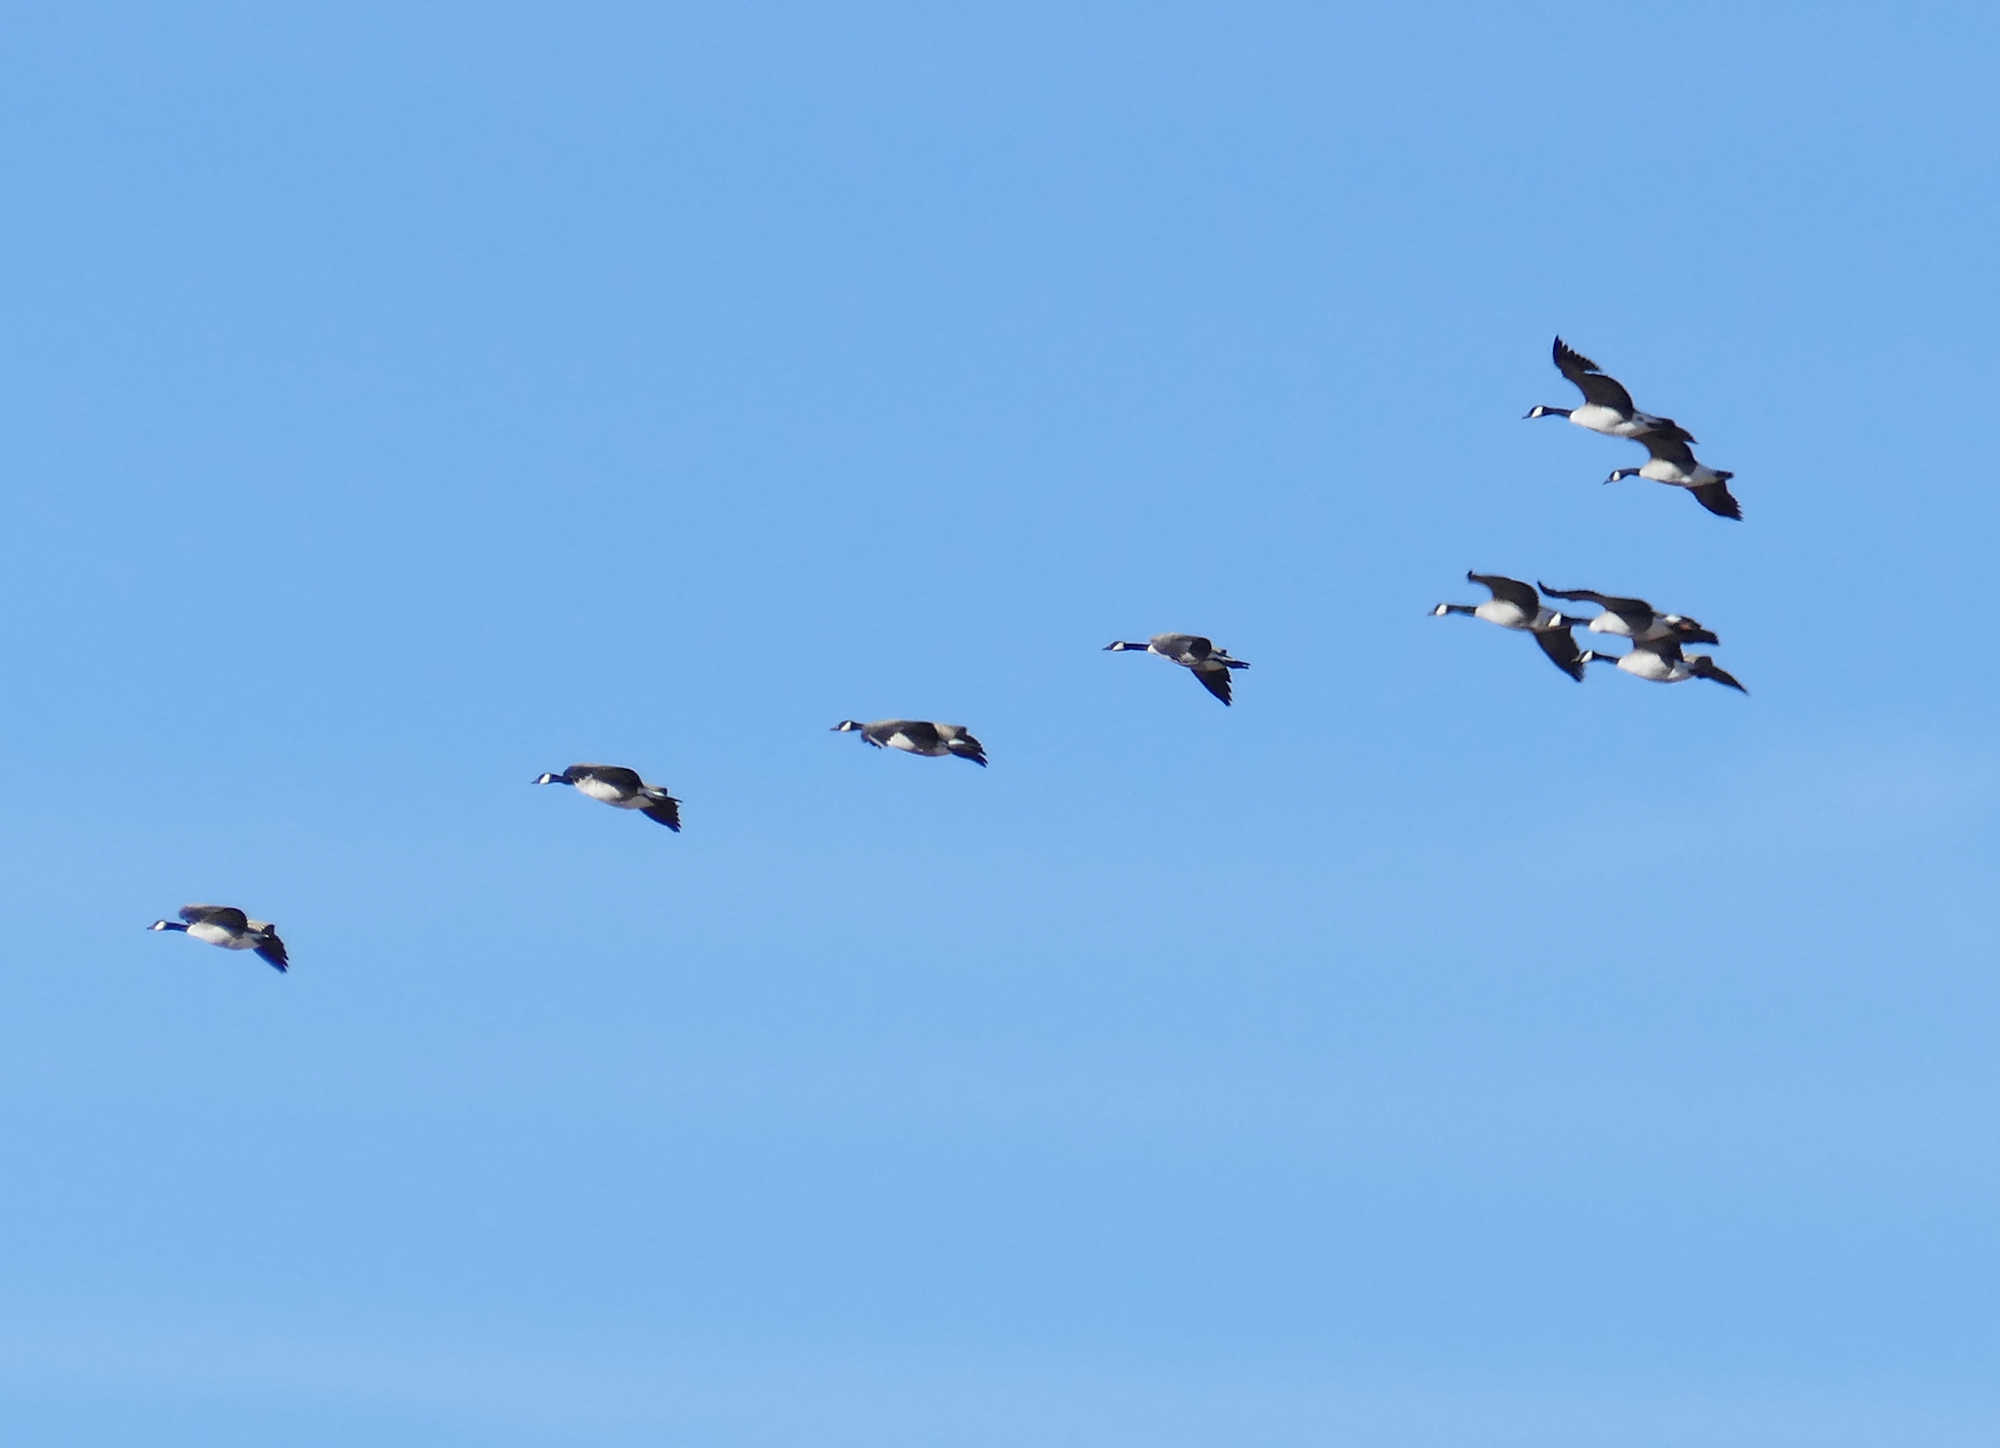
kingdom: Animalia
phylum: Chordata
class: Aves
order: Anseriformes
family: Anatidae
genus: Branta
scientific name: Branta canadensis
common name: Canada goose
